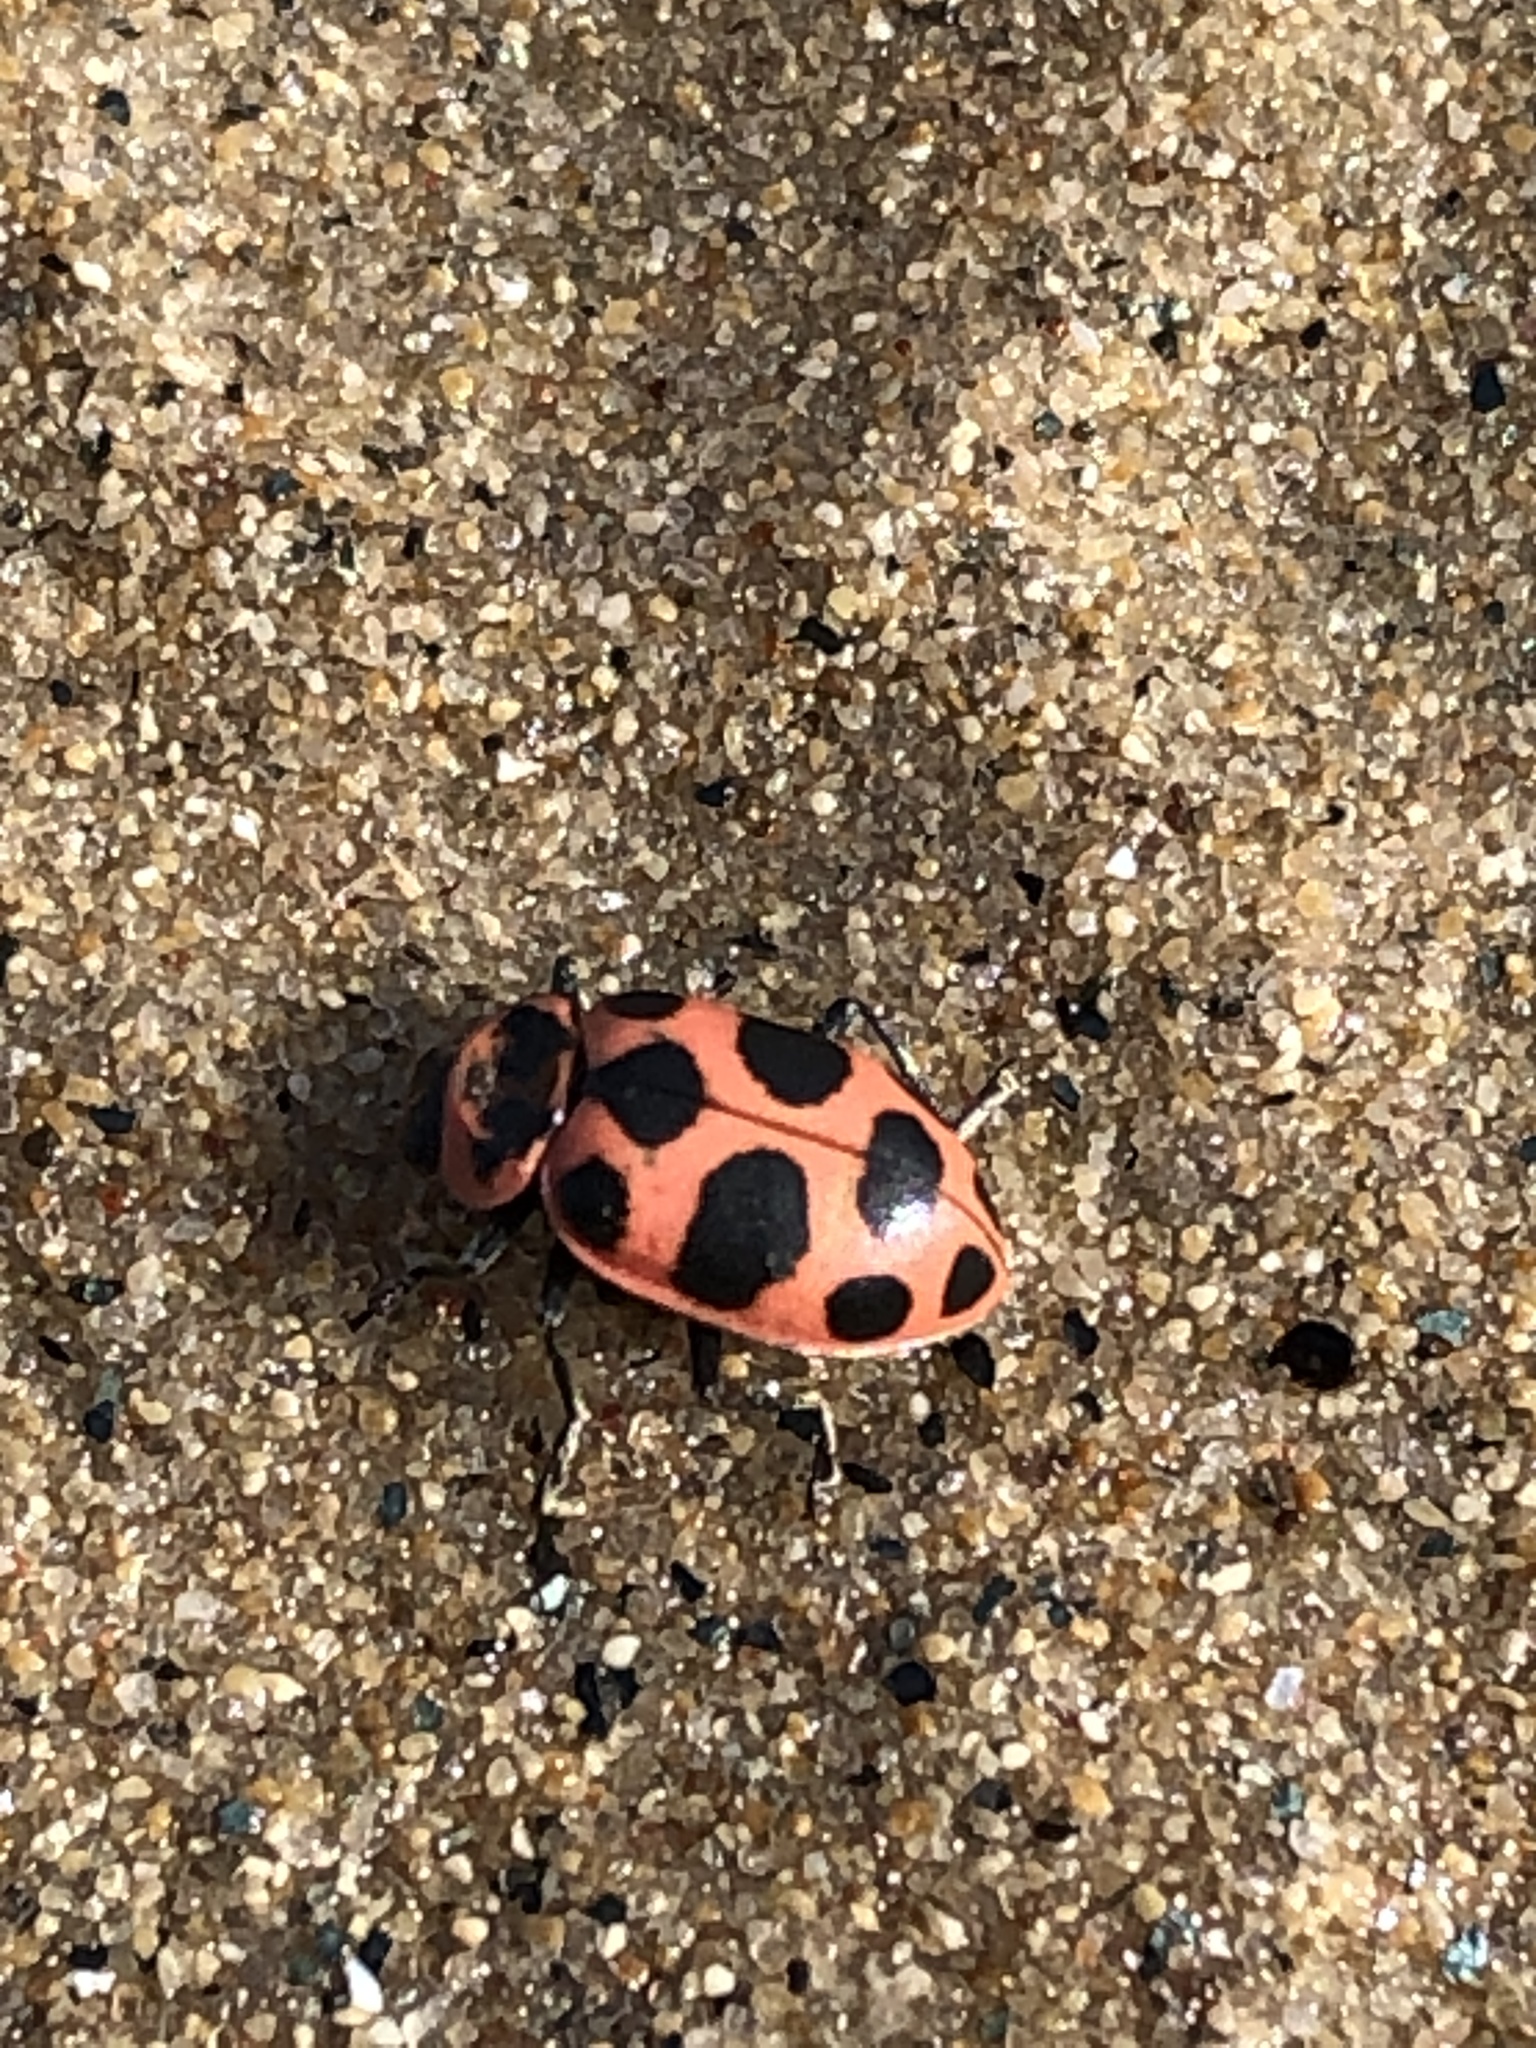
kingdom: Animalia
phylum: Arthropoda
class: Insecta
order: Coleoptera
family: Coccinellidae
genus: Coleomegilla
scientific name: Coleomegilla maculata
